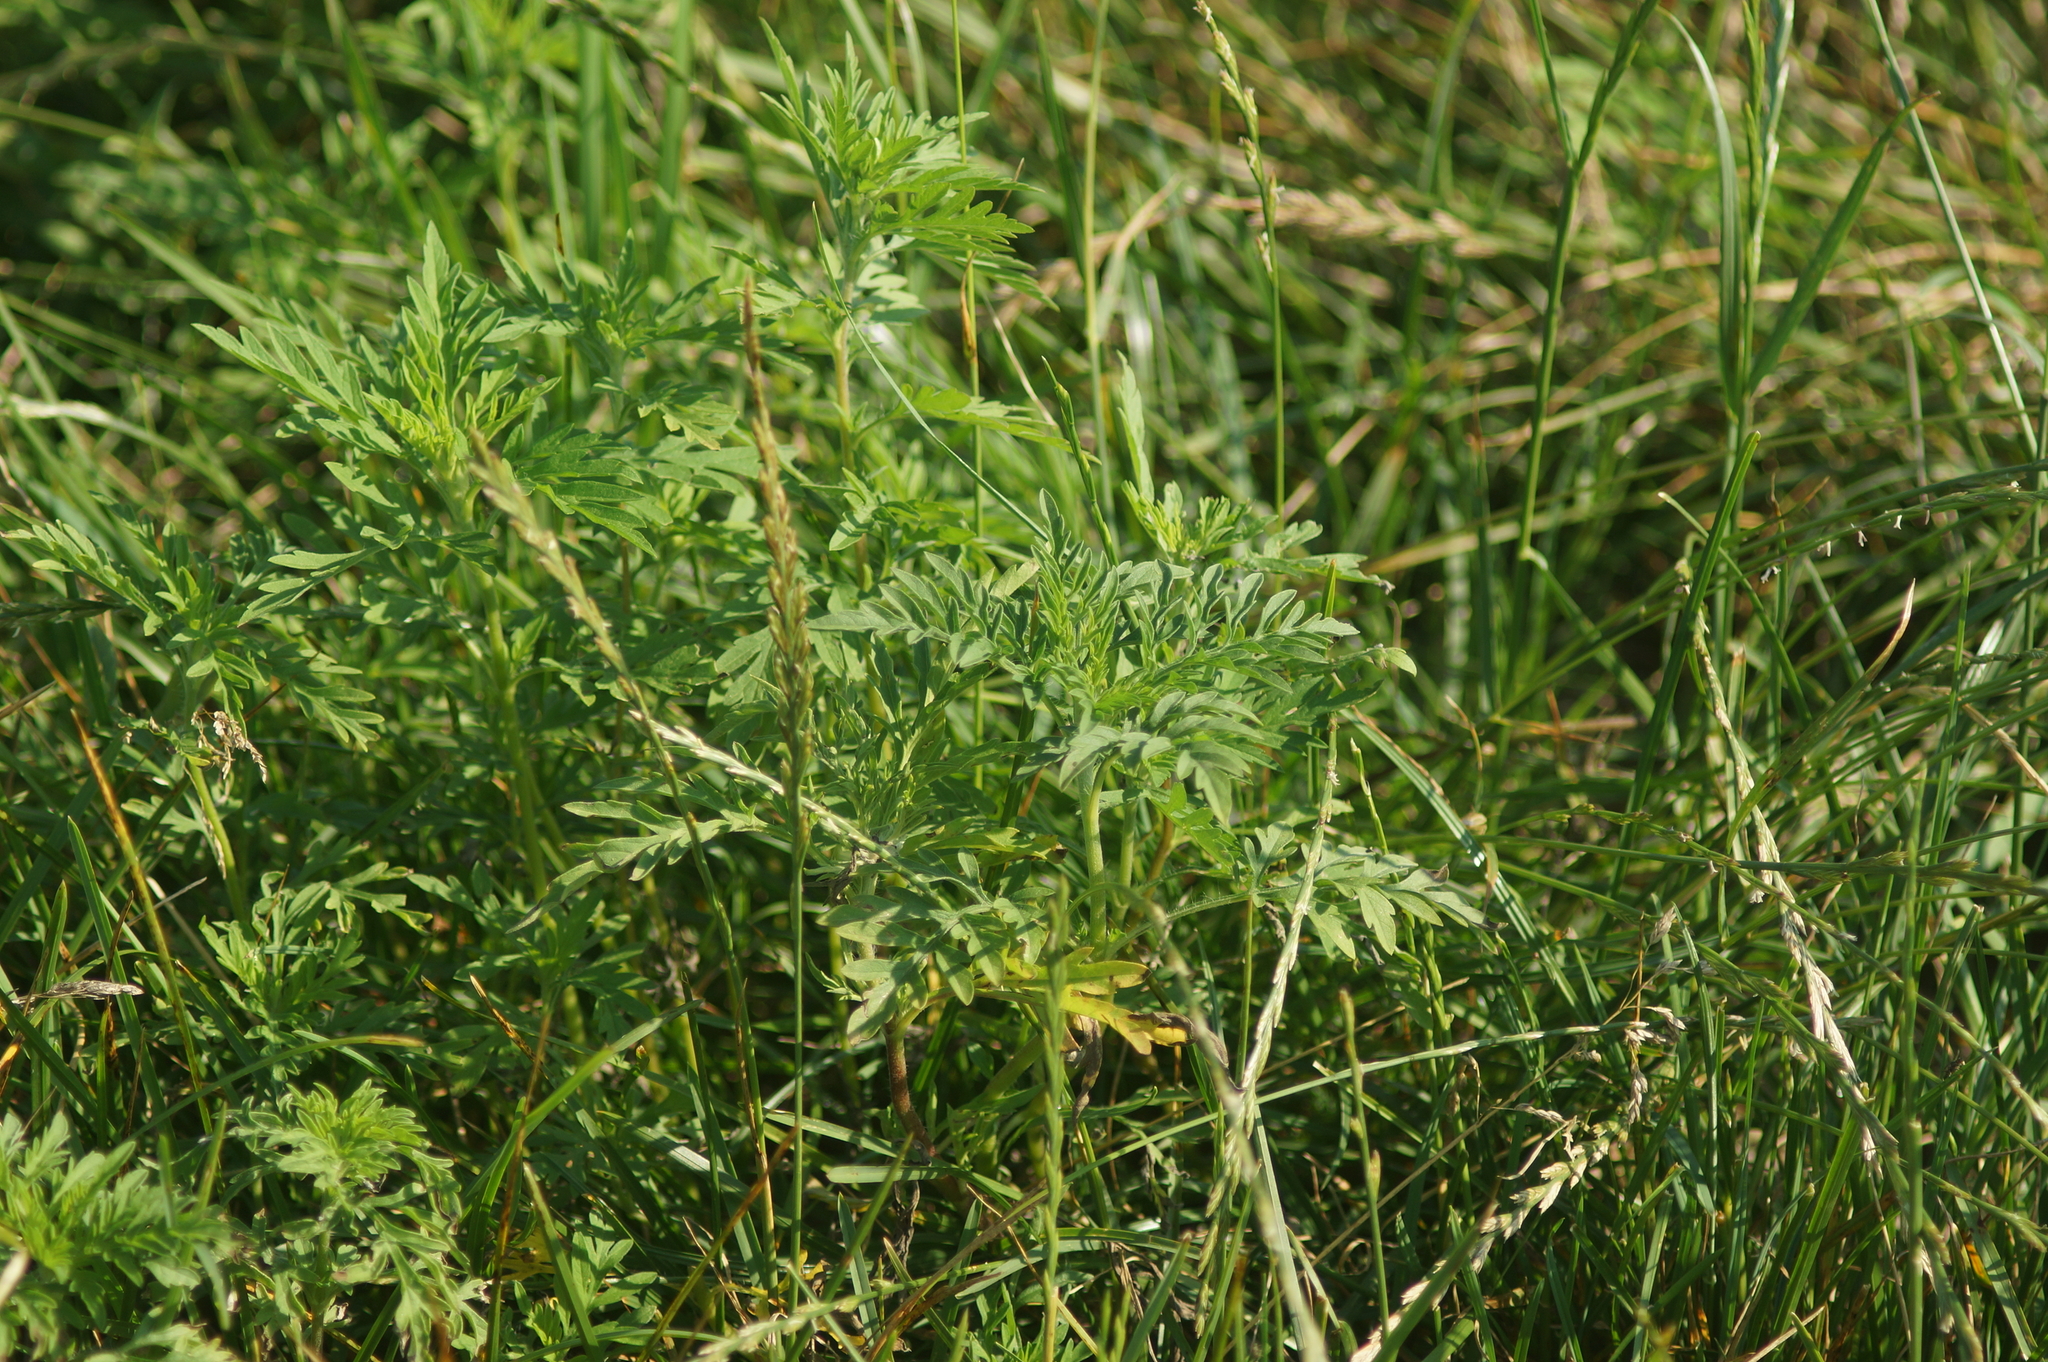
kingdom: Plantae
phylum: Tracheophyta
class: Magnoliopsida
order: Asterales
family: Asteraceae
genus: Ambrosia
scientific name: Ambrosia artemisiifolia
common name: Annual ragweed
